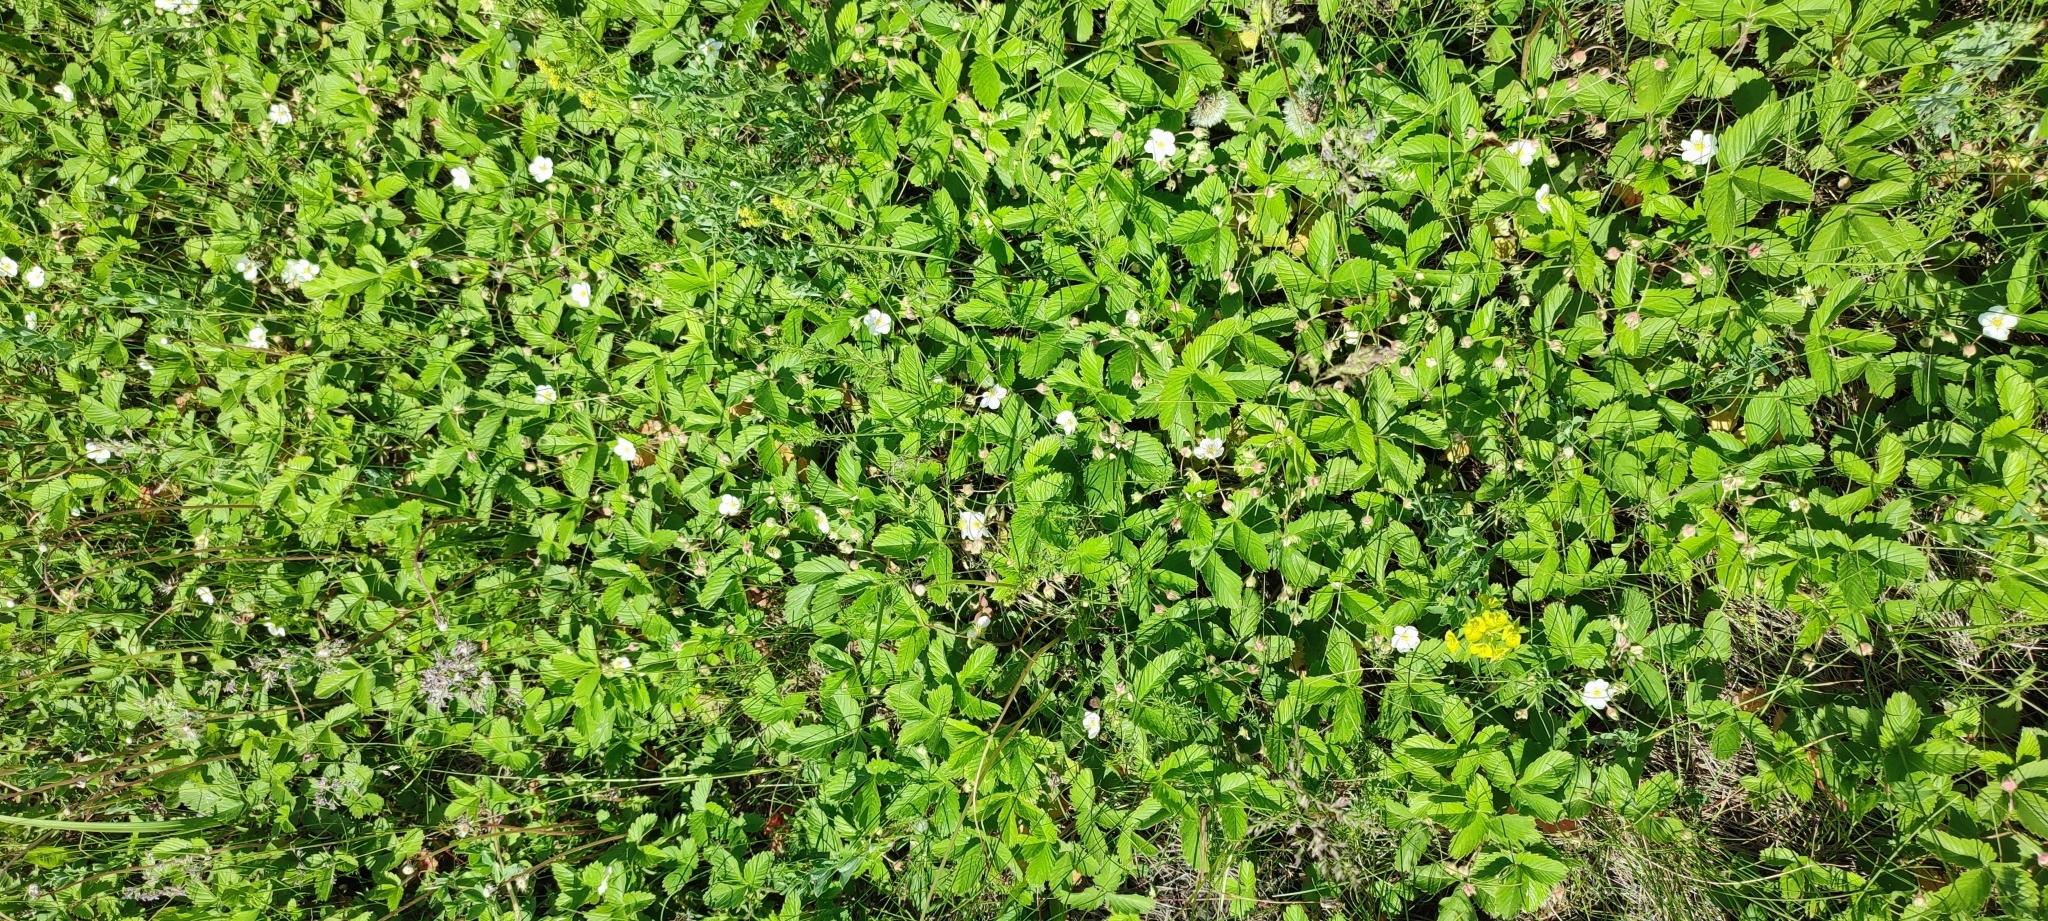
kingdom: Plantae
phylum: Tracheophyta
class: Magnoliopsida
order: Rosales
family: Rosaceae
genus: Fragaria
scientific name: Fragaria viridis
